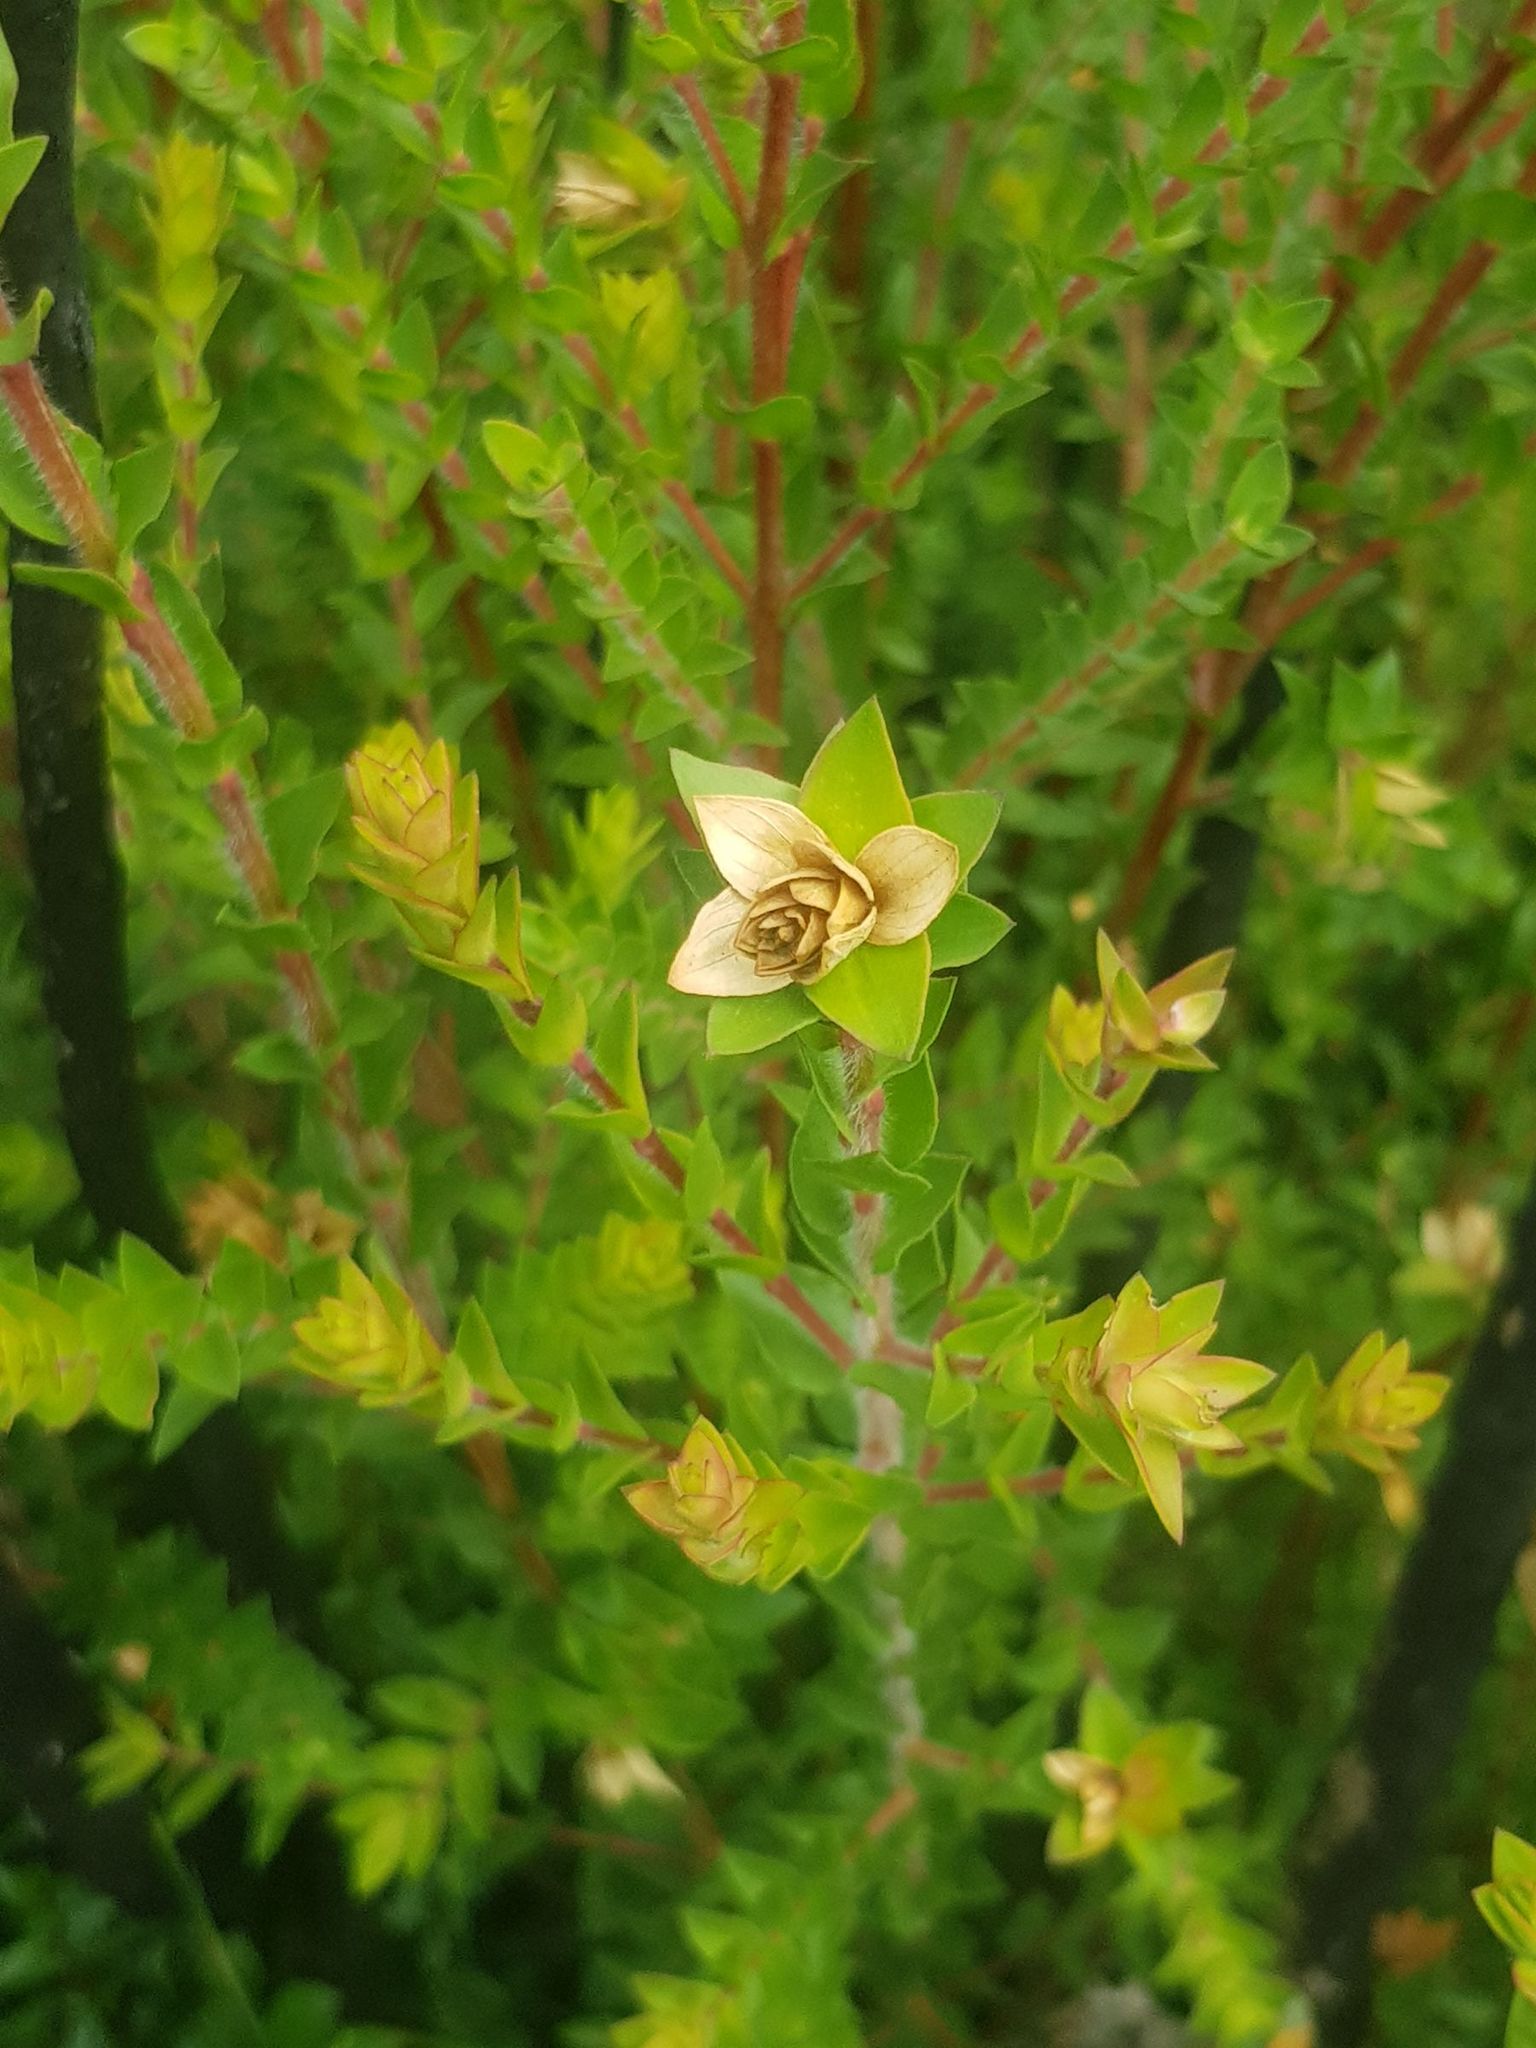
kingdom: Plantae
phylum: Tracheophyta
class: Magnoliopsida
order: Myrtales
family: Myrtaceae
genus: Melaleuca
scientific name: Melaleuca squarrosa
